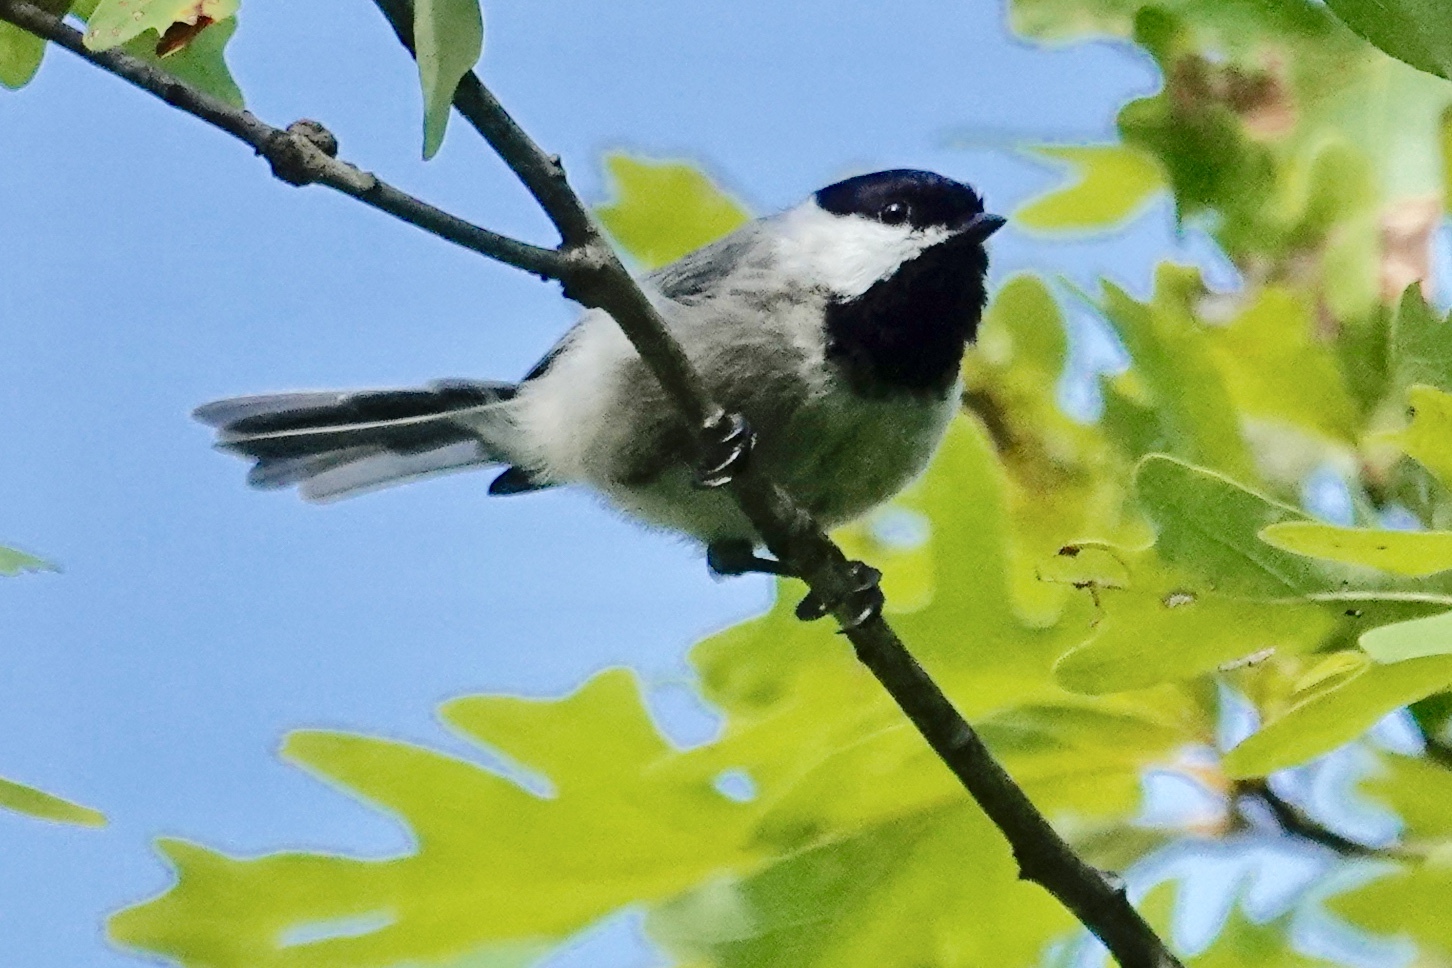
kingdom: Animalia
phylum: Chordata
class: Aves
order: Passeriformes
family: Paridae
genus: Poecile
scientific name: Poecile carolinensis
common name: Carolina chickadee
